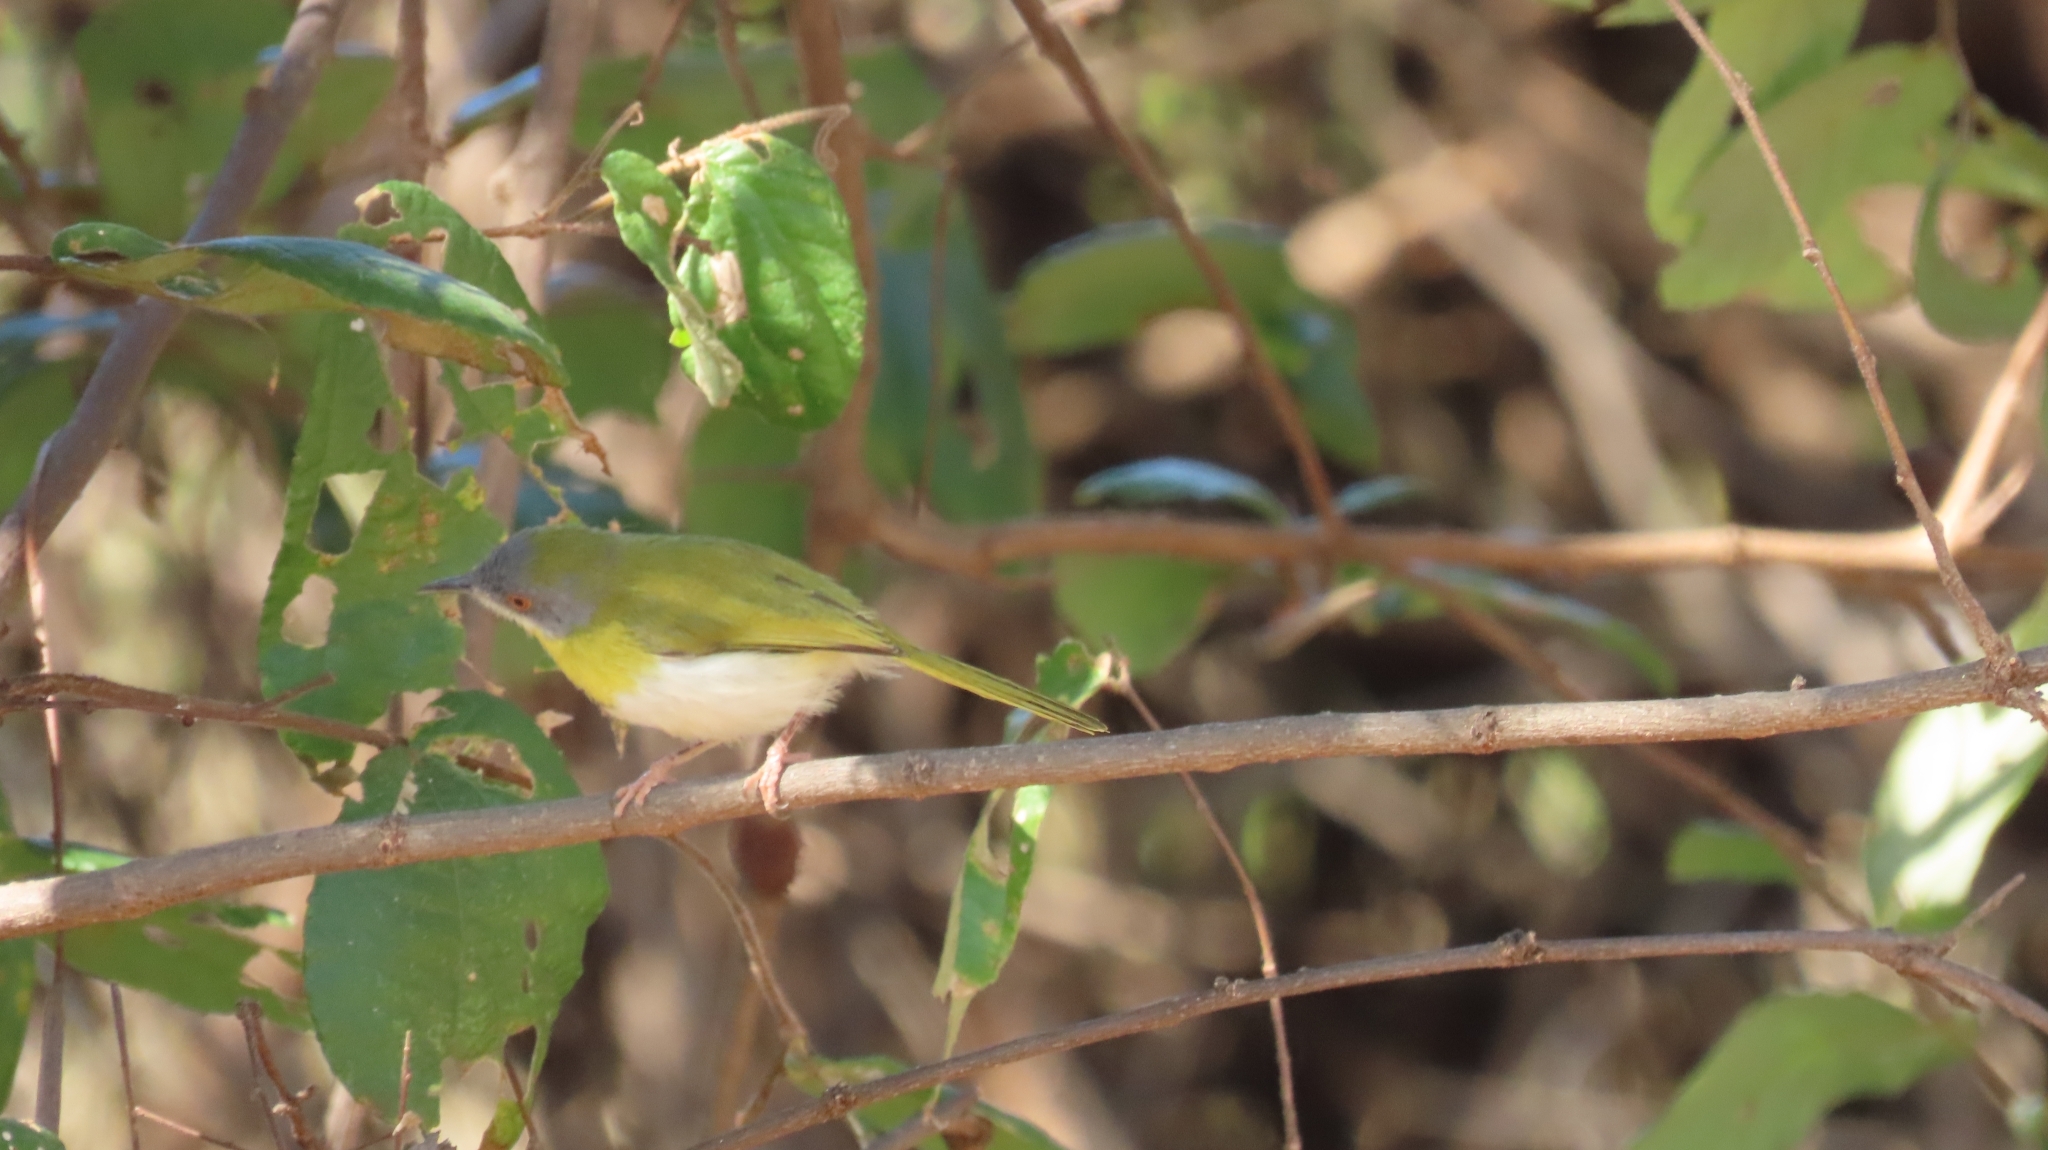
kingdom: Animalia
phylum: Chordata
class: Aves
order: Passeriformes
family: Cisticolidae
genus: Apalis
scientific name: Apalis flavida
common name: Yellow-breasted apalis
